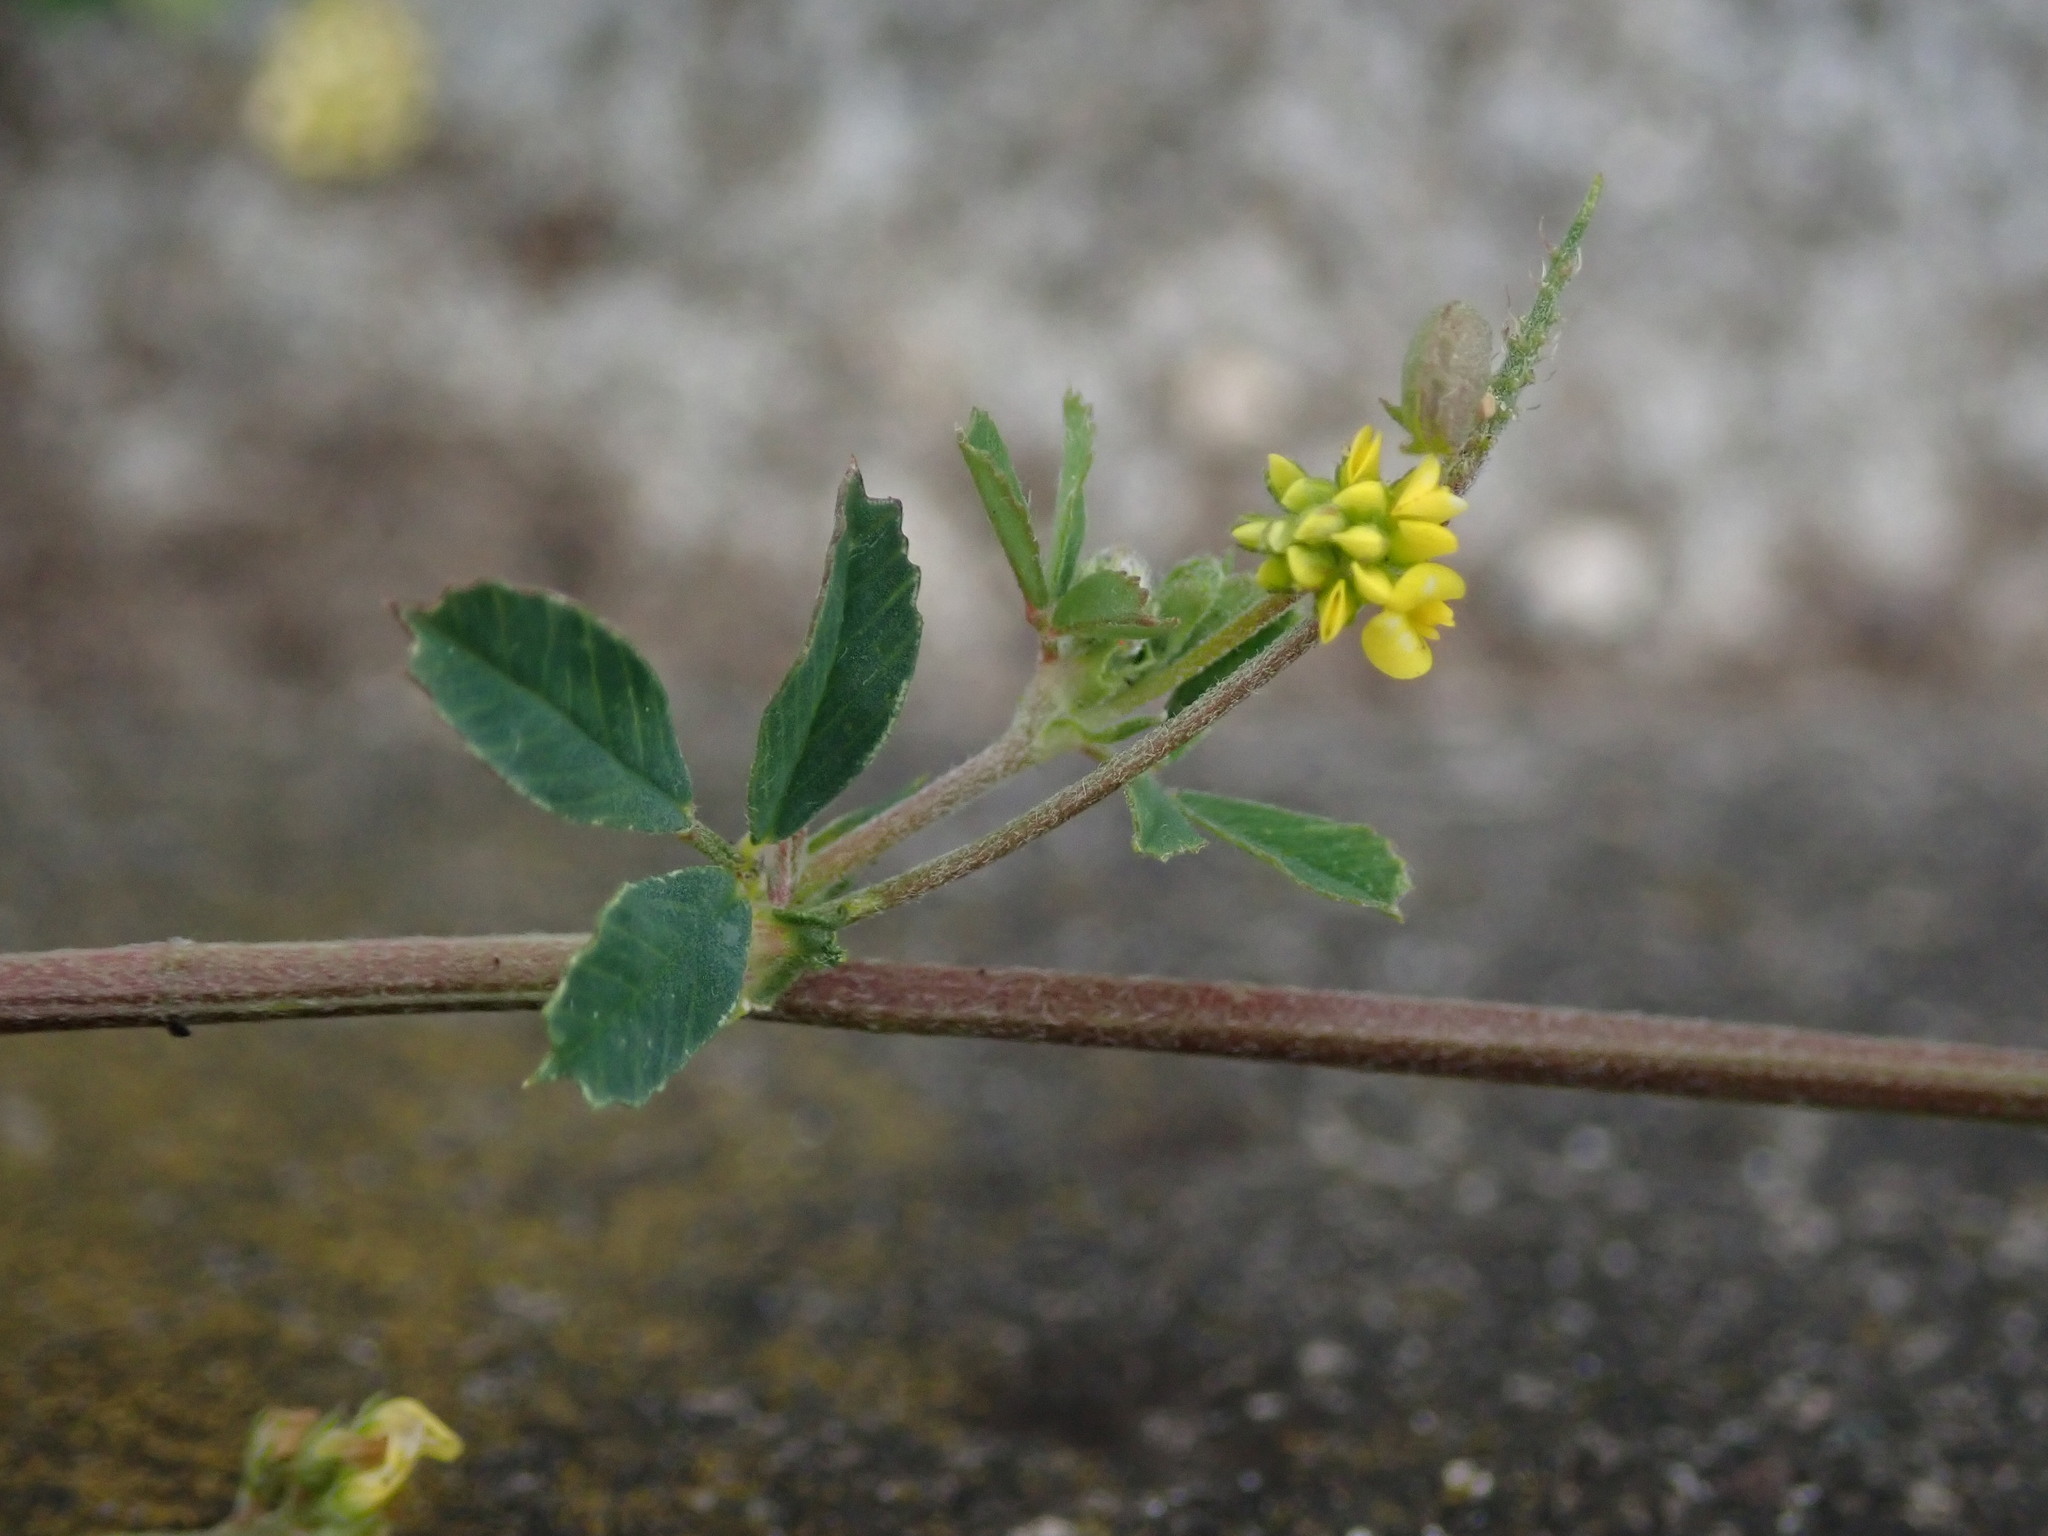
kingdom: Plantae
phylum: Tracheophyta
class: Magnoliopsida
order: Fabales
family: Fabaceae
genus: Medicago
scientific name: Medicago lupulina
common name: Black medick
